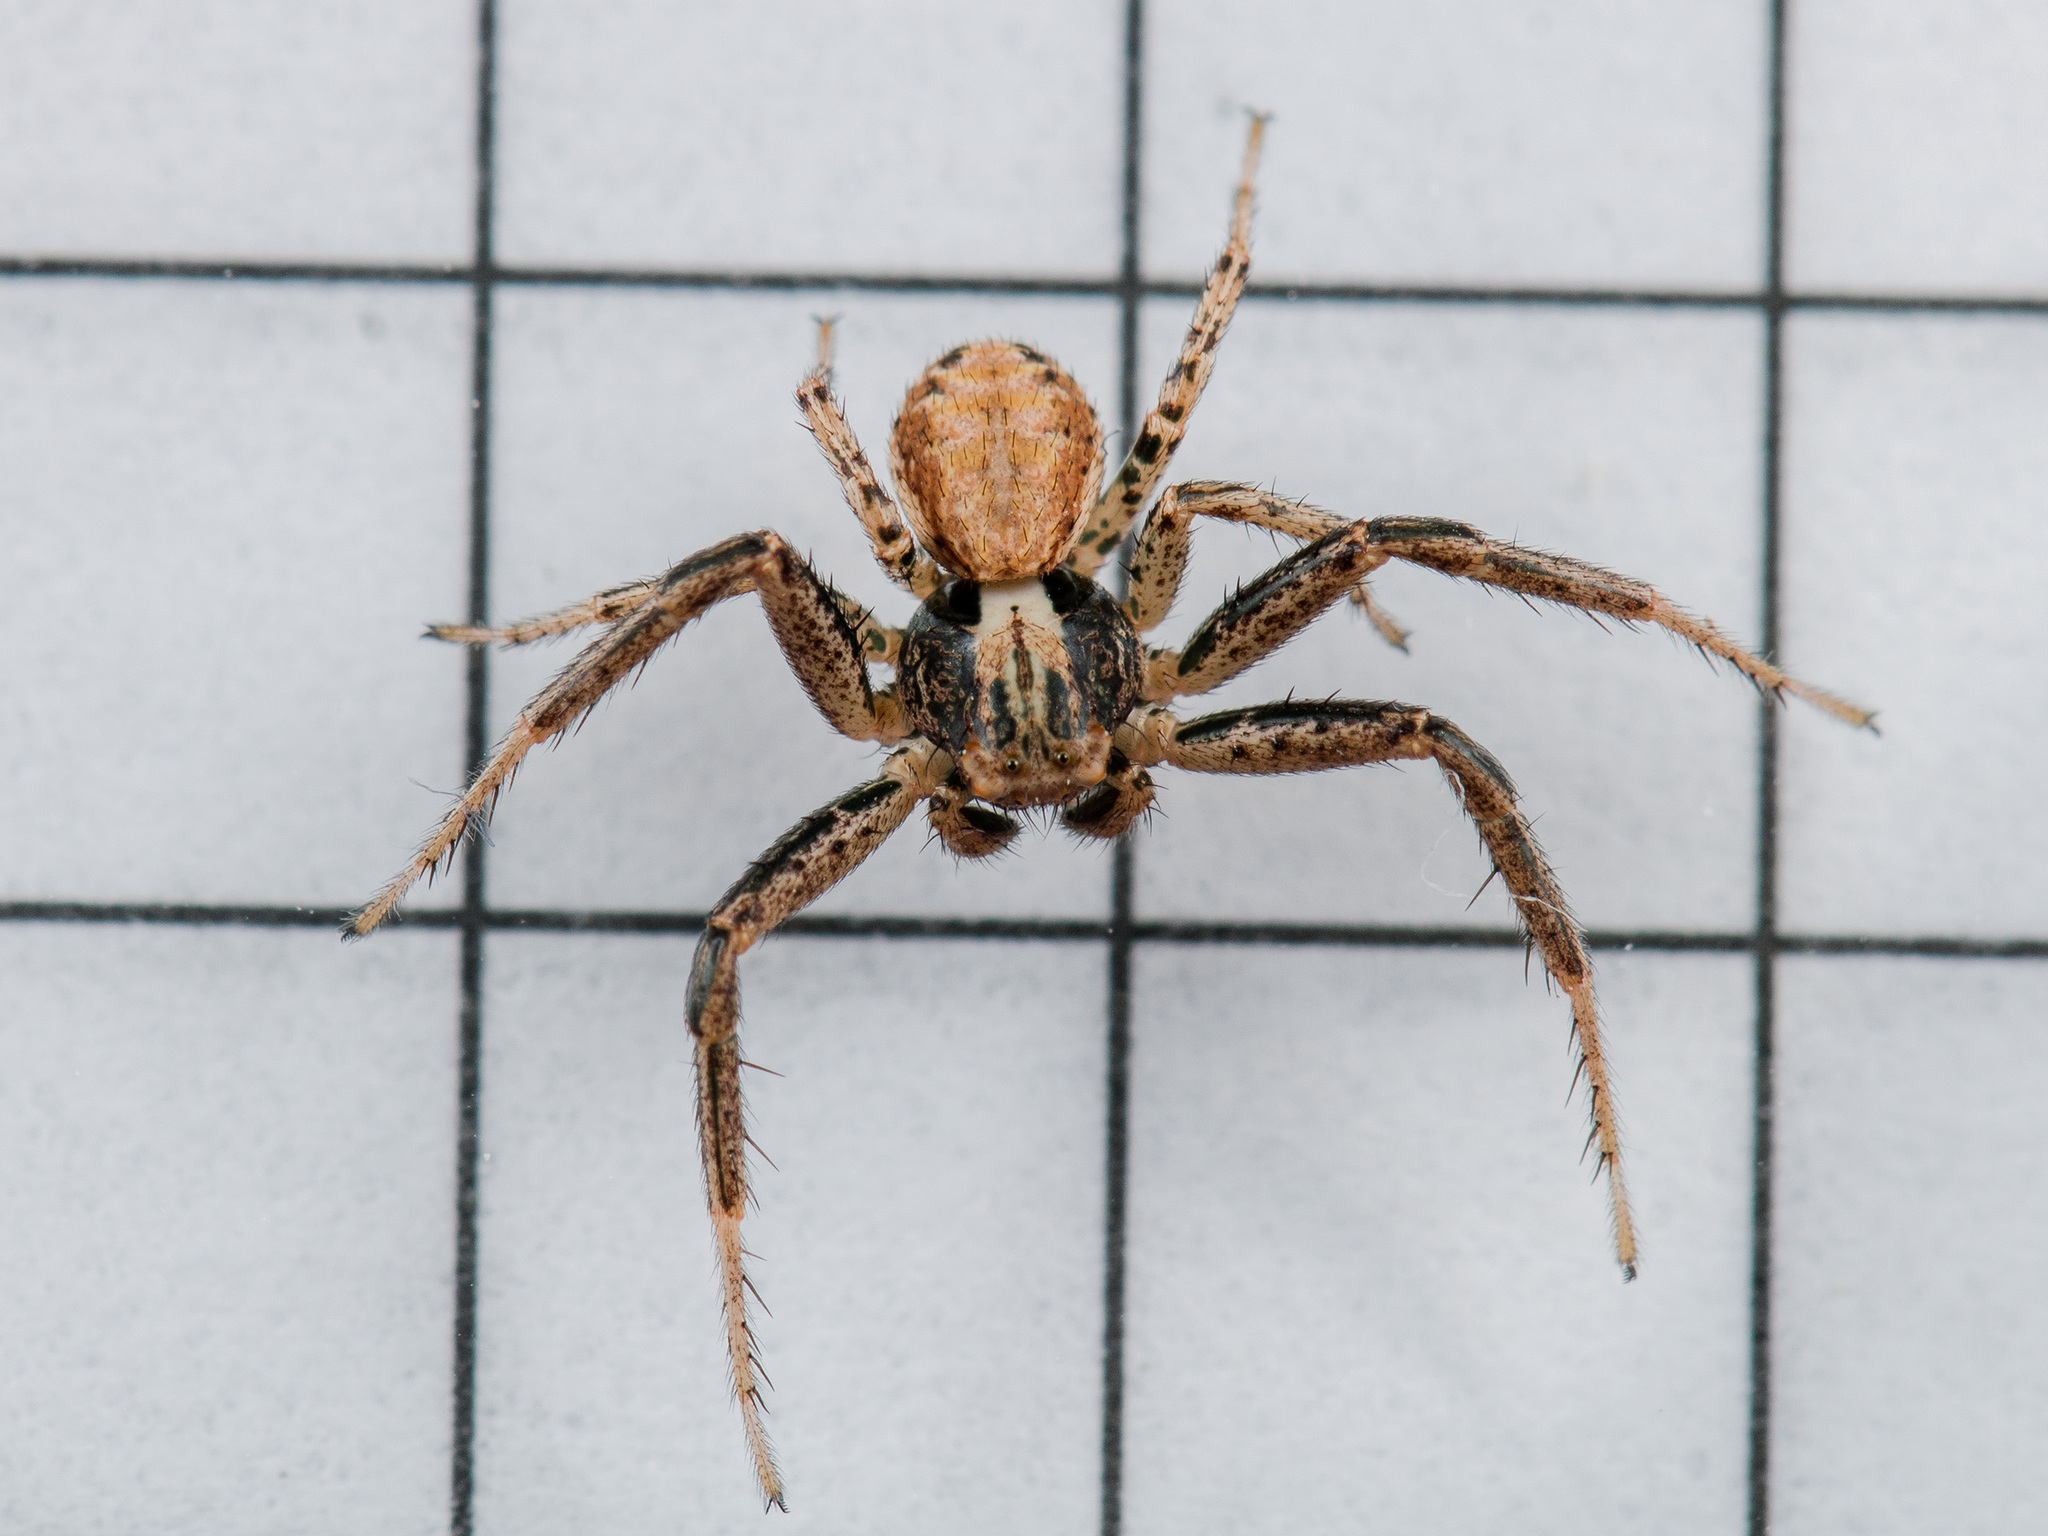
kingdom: Animalia
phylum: Arthropoda
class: Arachnida
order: Araneae
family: Thomisidae
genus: Xysticus
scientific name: Xysticus marmoratus
